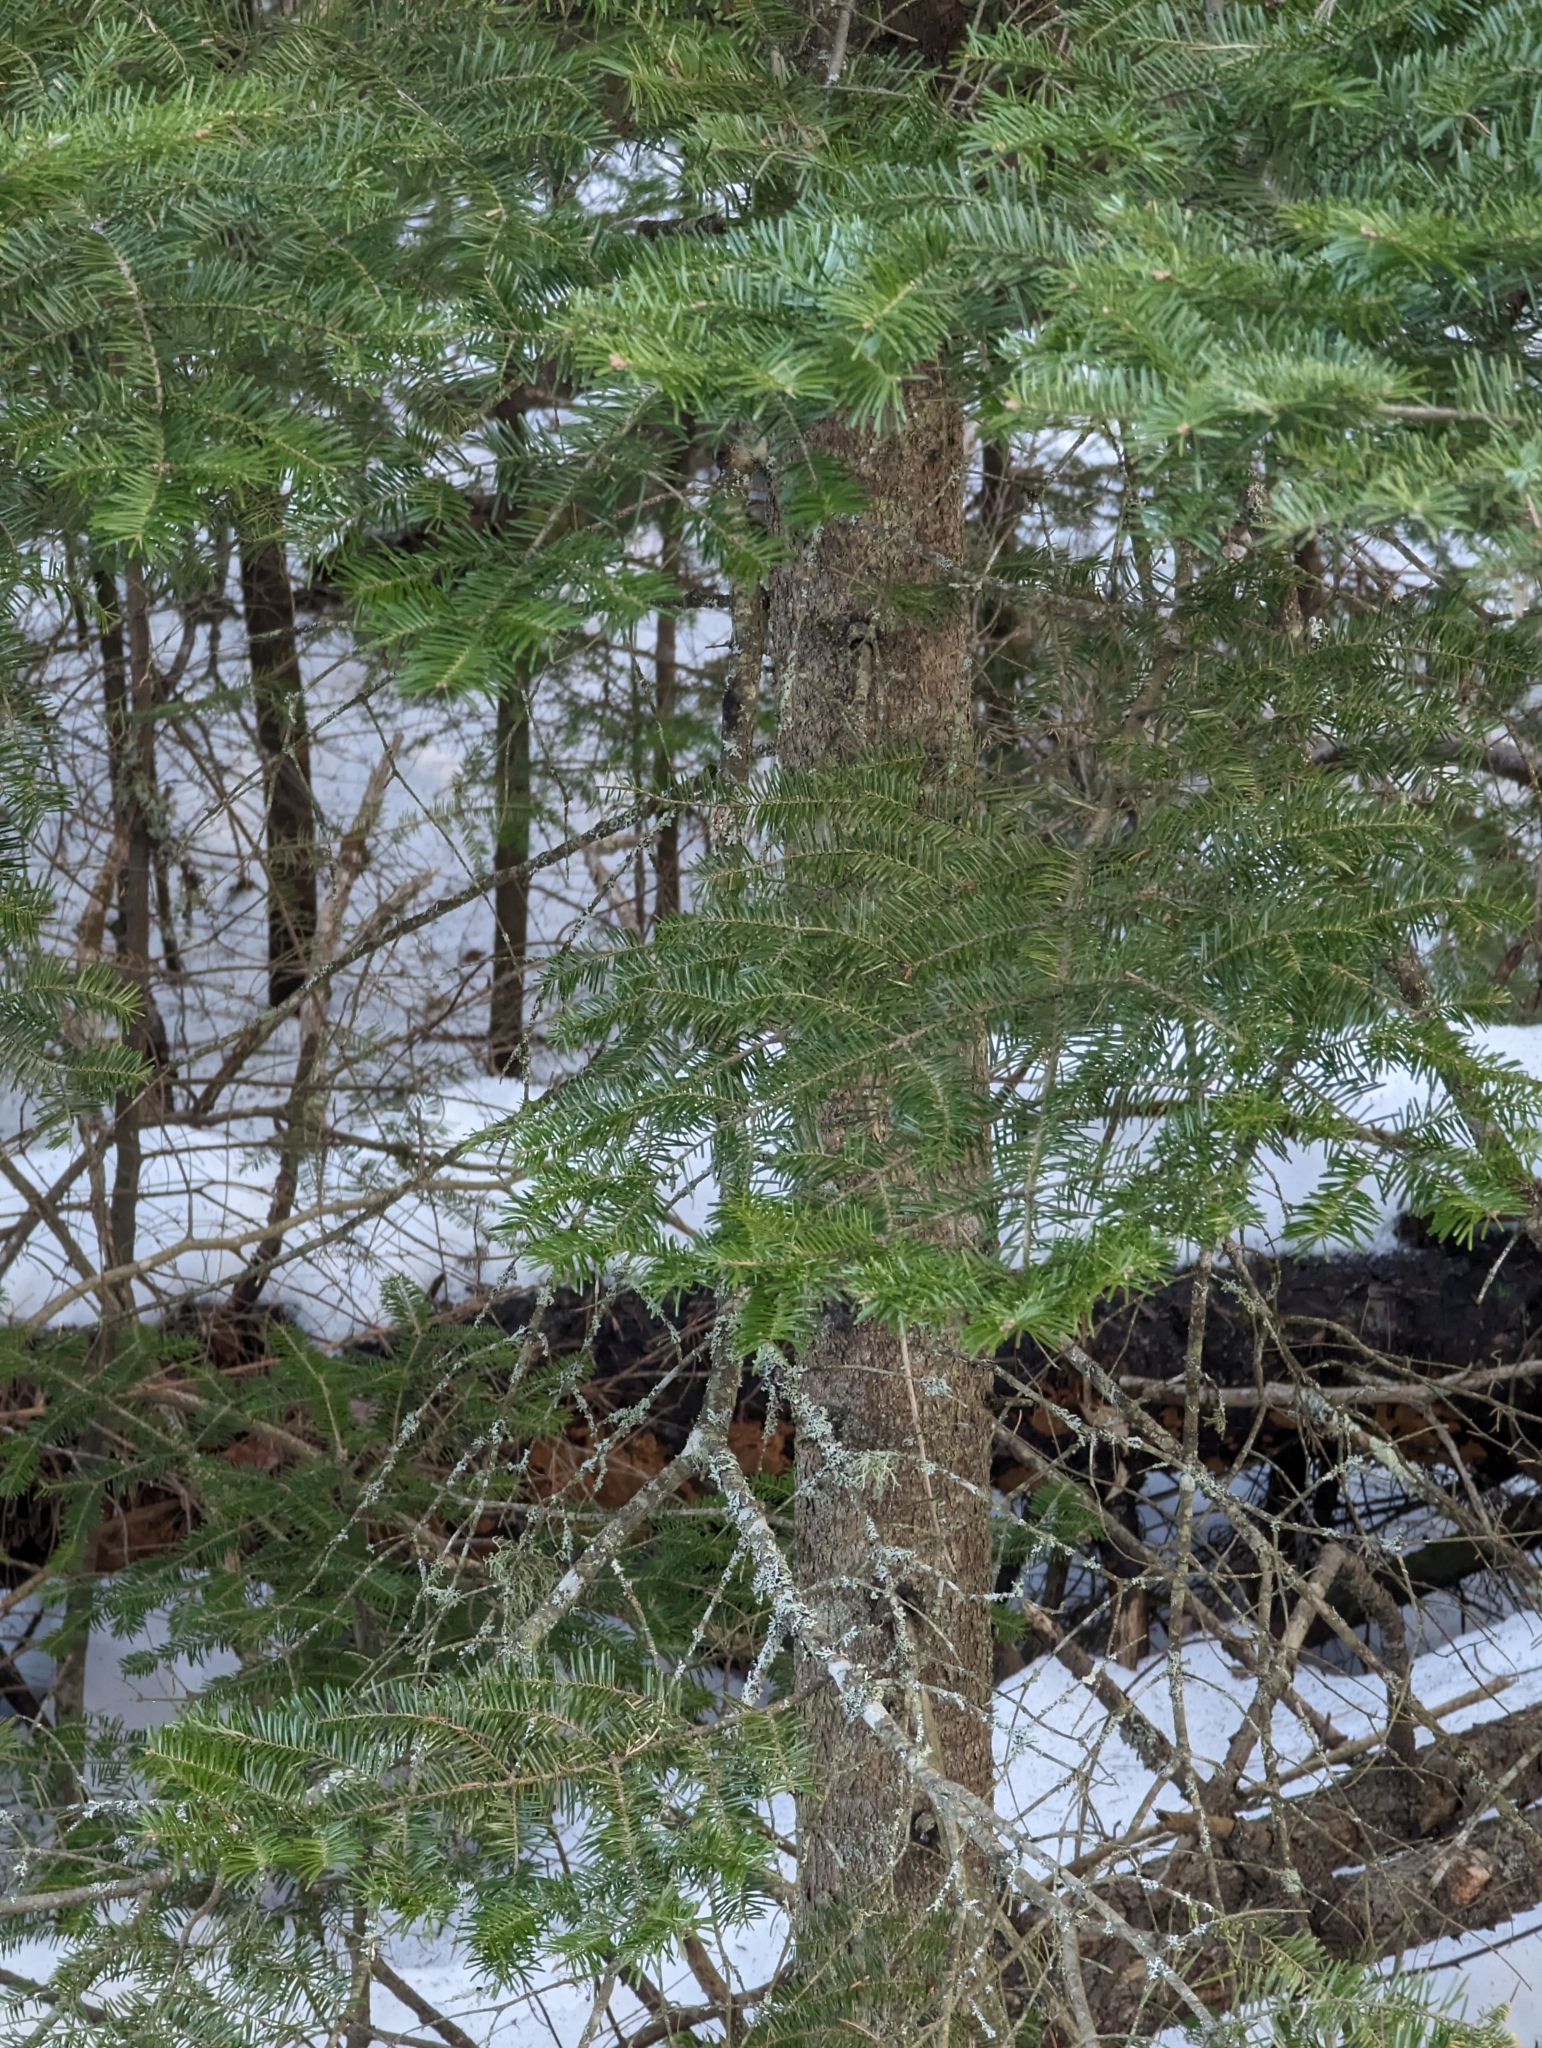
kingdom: Plantae
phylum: Tracheophyta
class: Pinopsida
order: Pinales
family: Pinaceae
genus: Abies
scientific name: Abies balsamea
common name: Balsam fir
